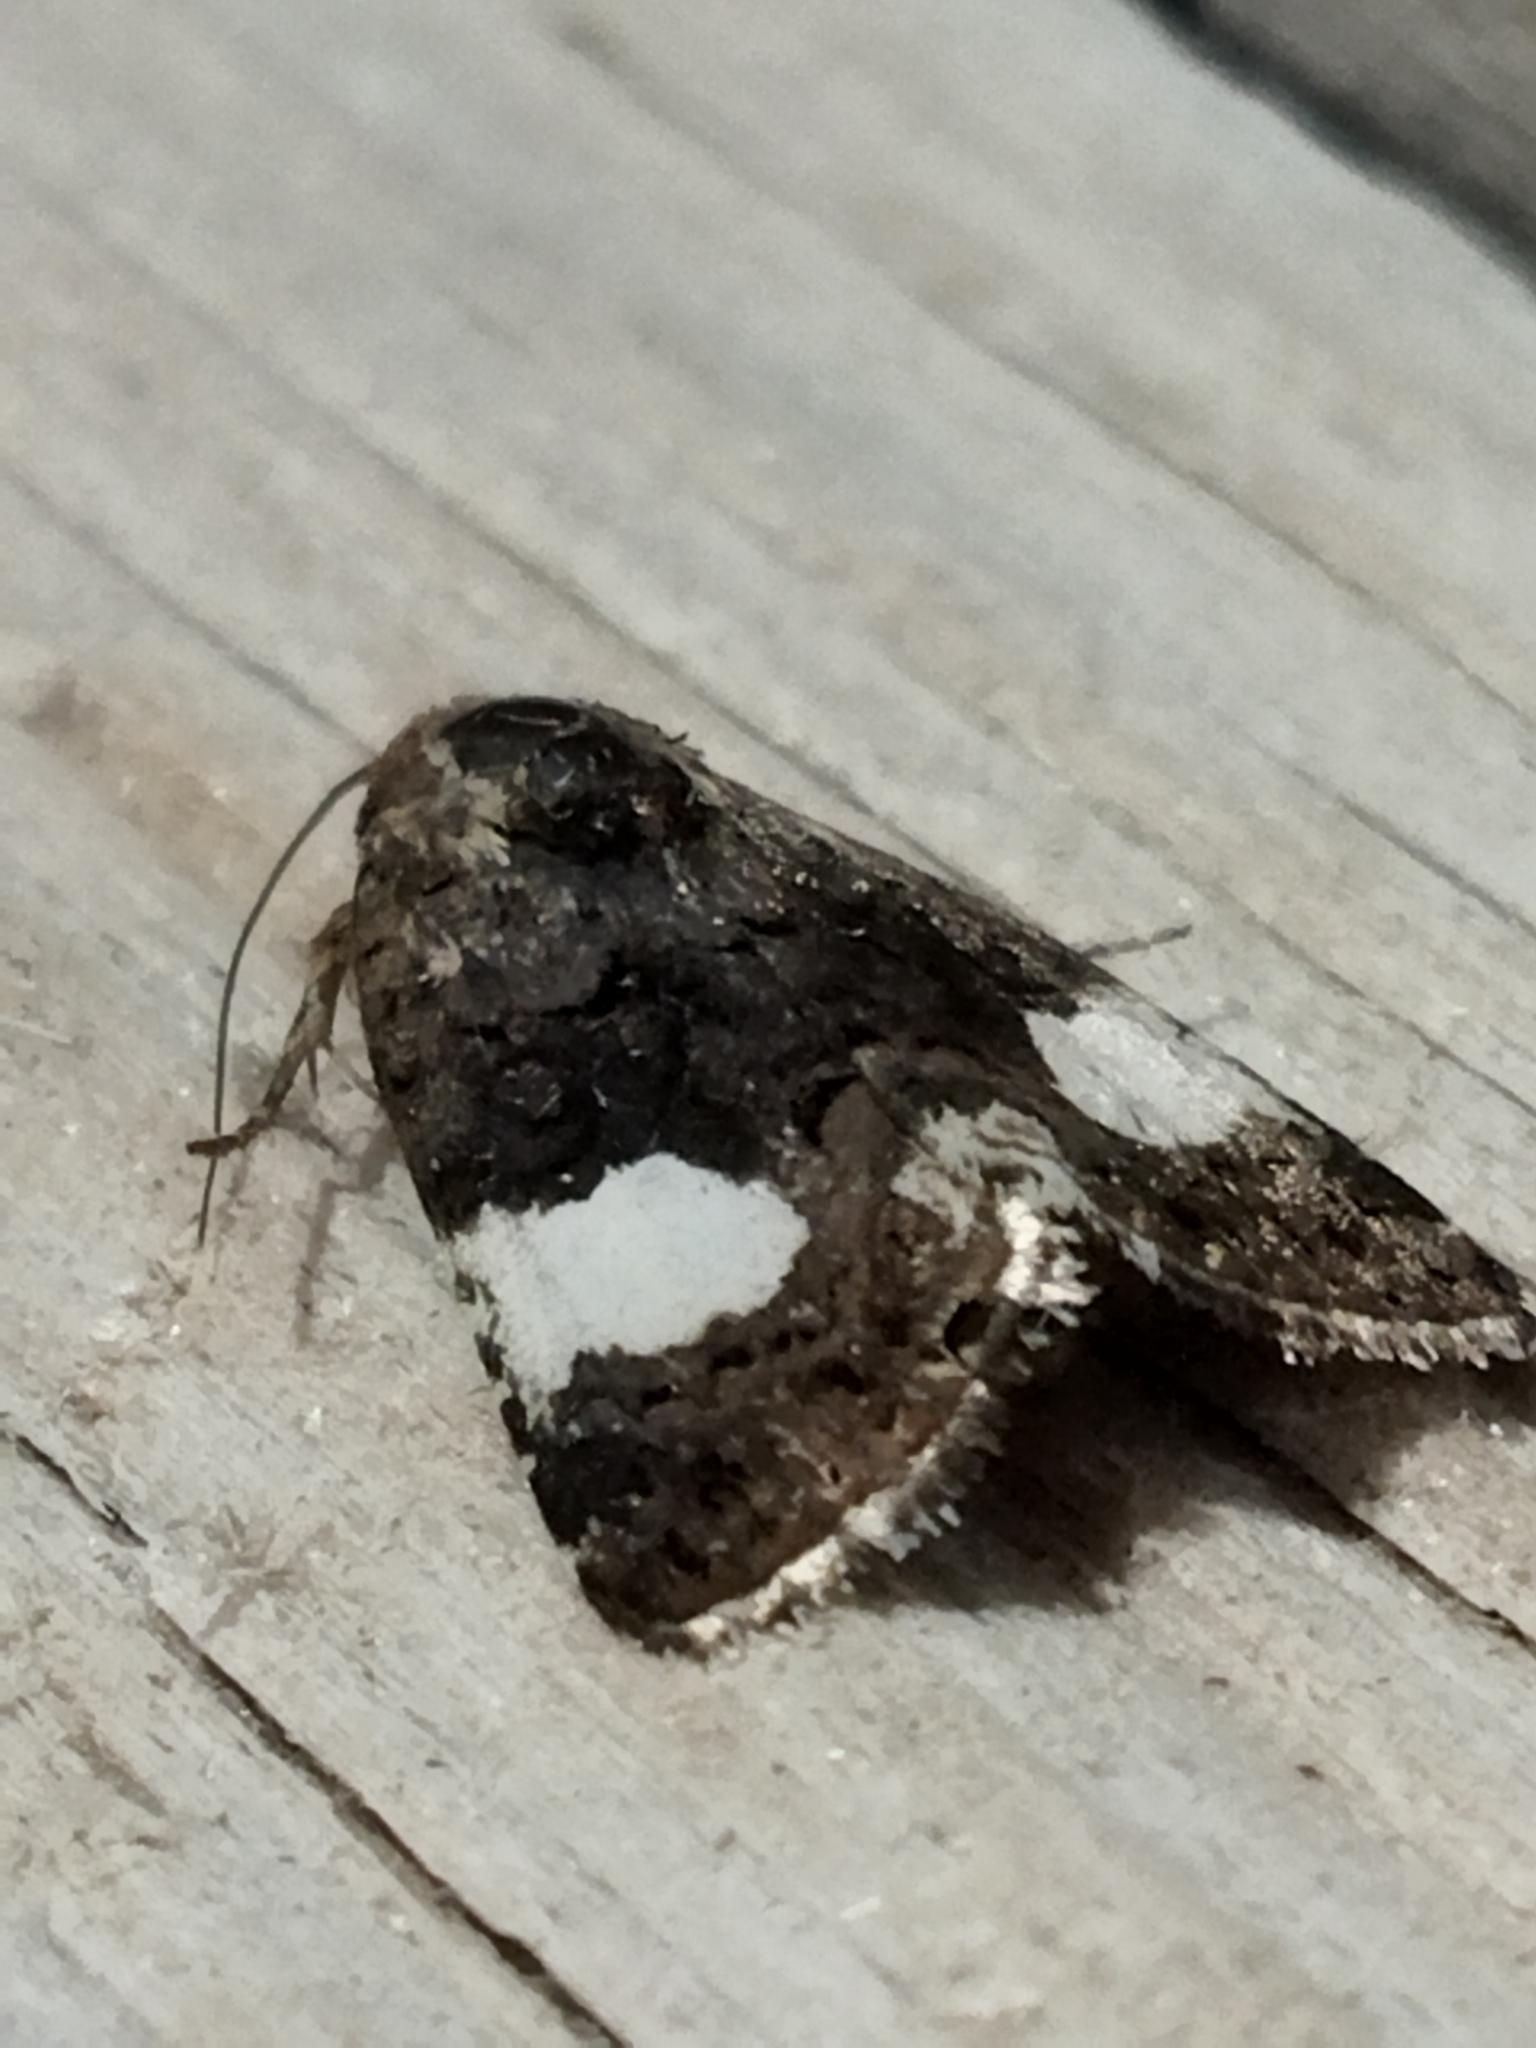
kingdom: Animalia
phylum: Arthropoda
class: Insecta
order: Lepidoptera
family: Erebidae
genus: Tyta
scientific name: Tyta luctuosa
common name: Four-spotted
